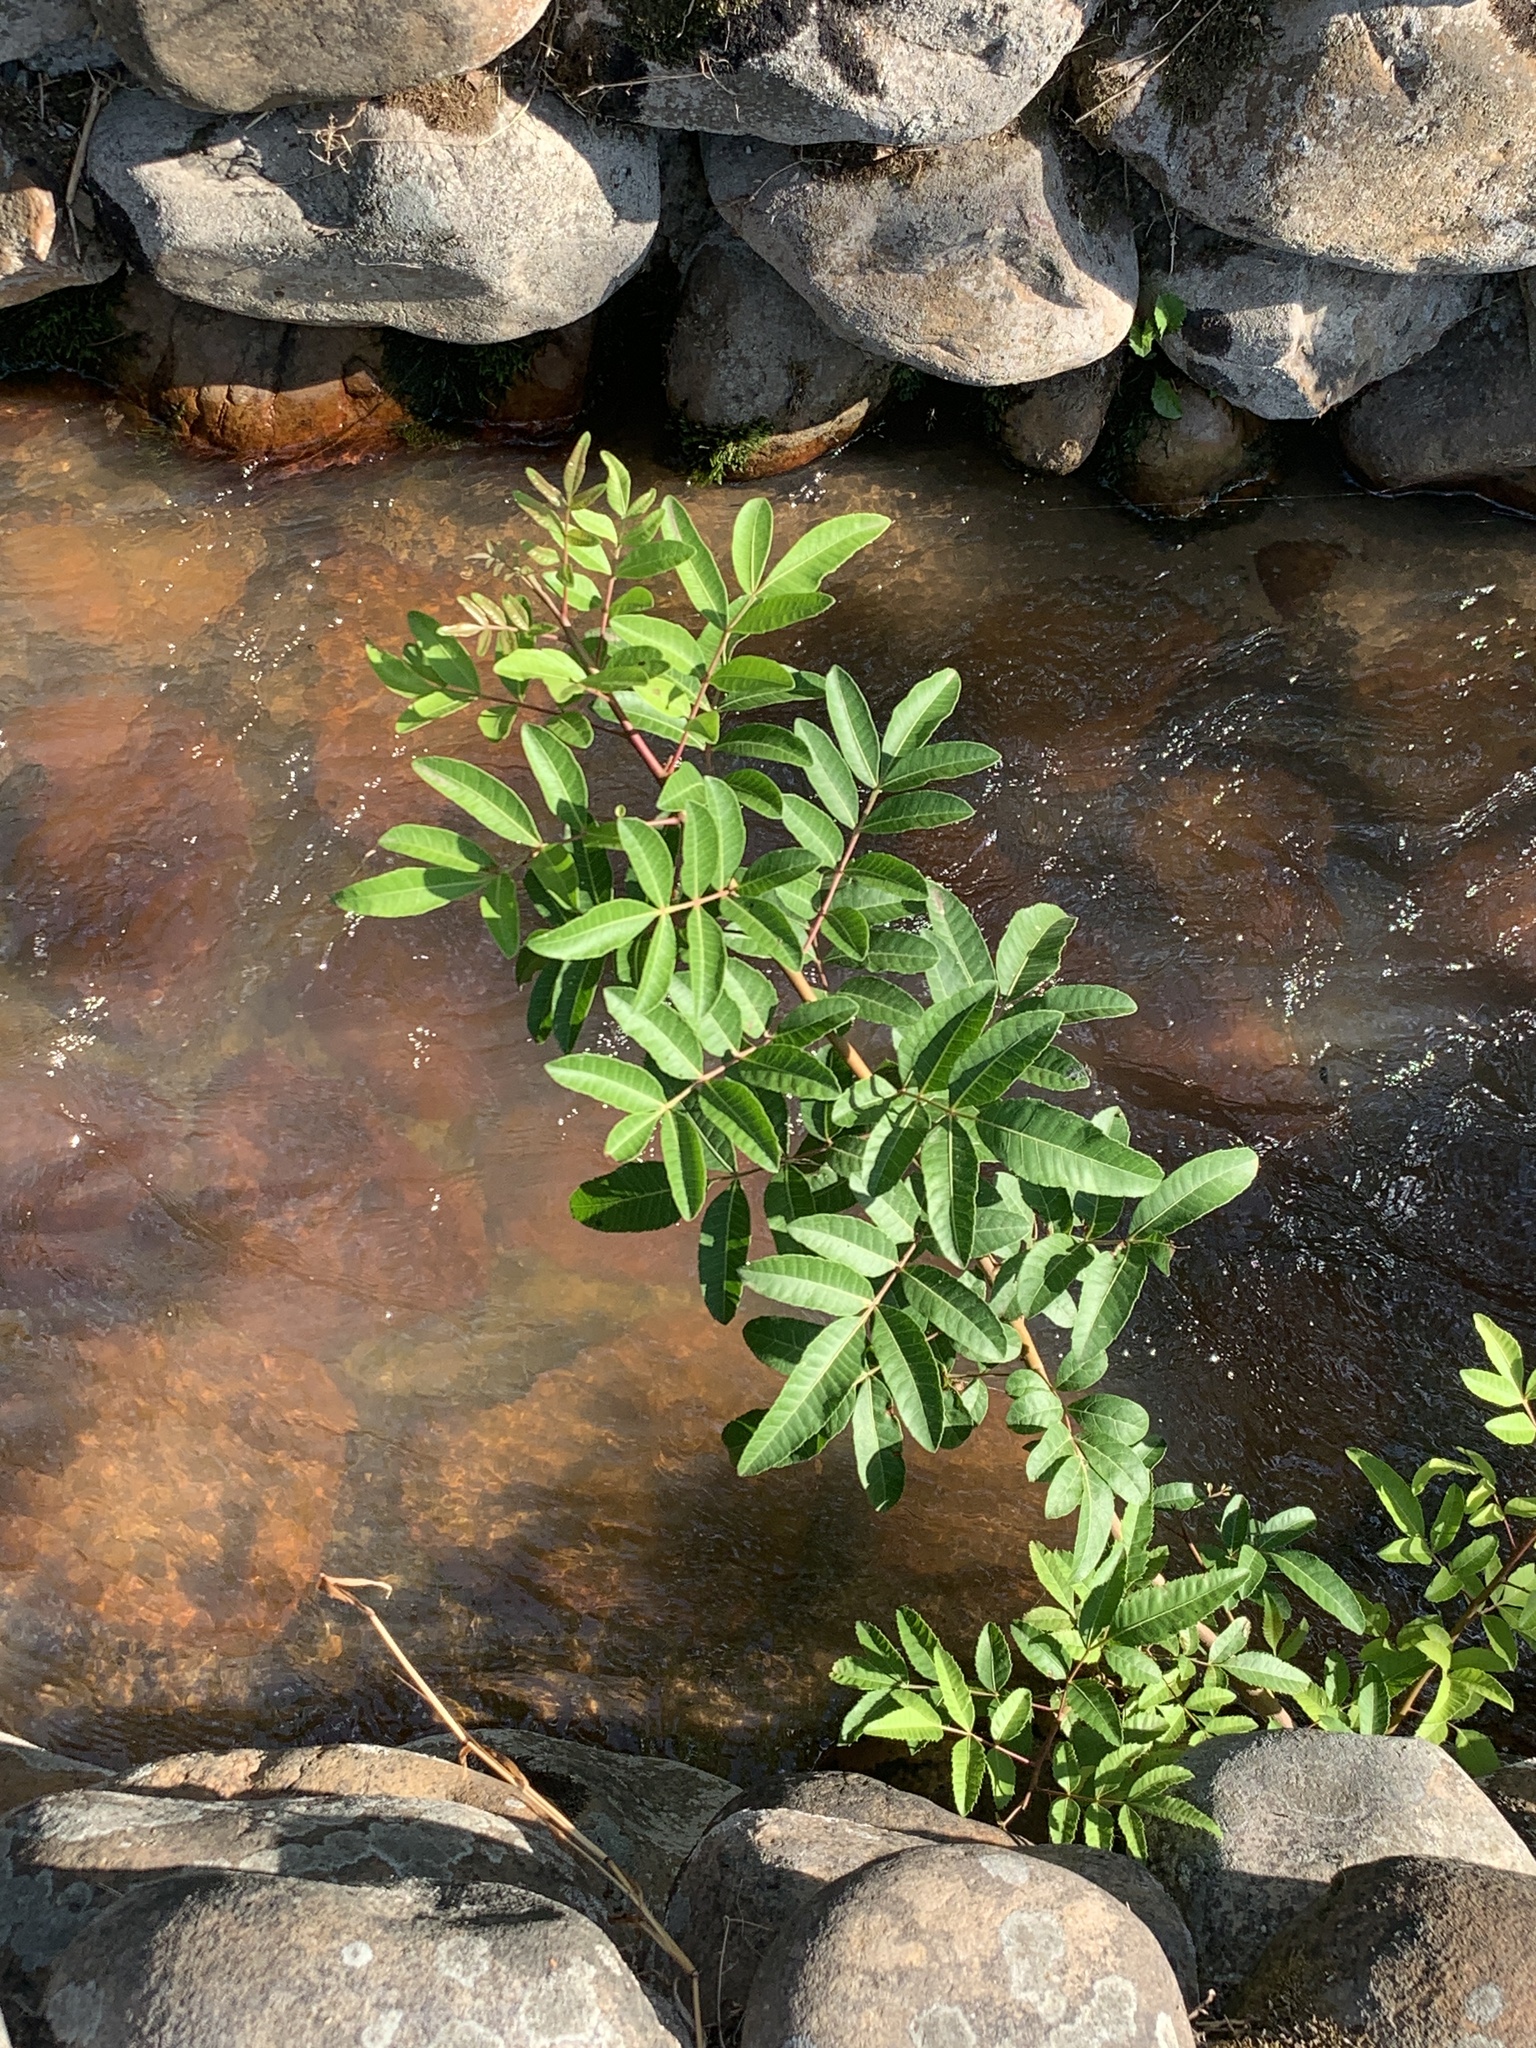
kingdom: Plantae
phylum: Tracheophyta
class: Magnoliopsida
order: Sapindales
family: Anacardiaceae
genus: Schinus
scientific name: Schinus terebinthifolia
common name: Brazilian peppertree
